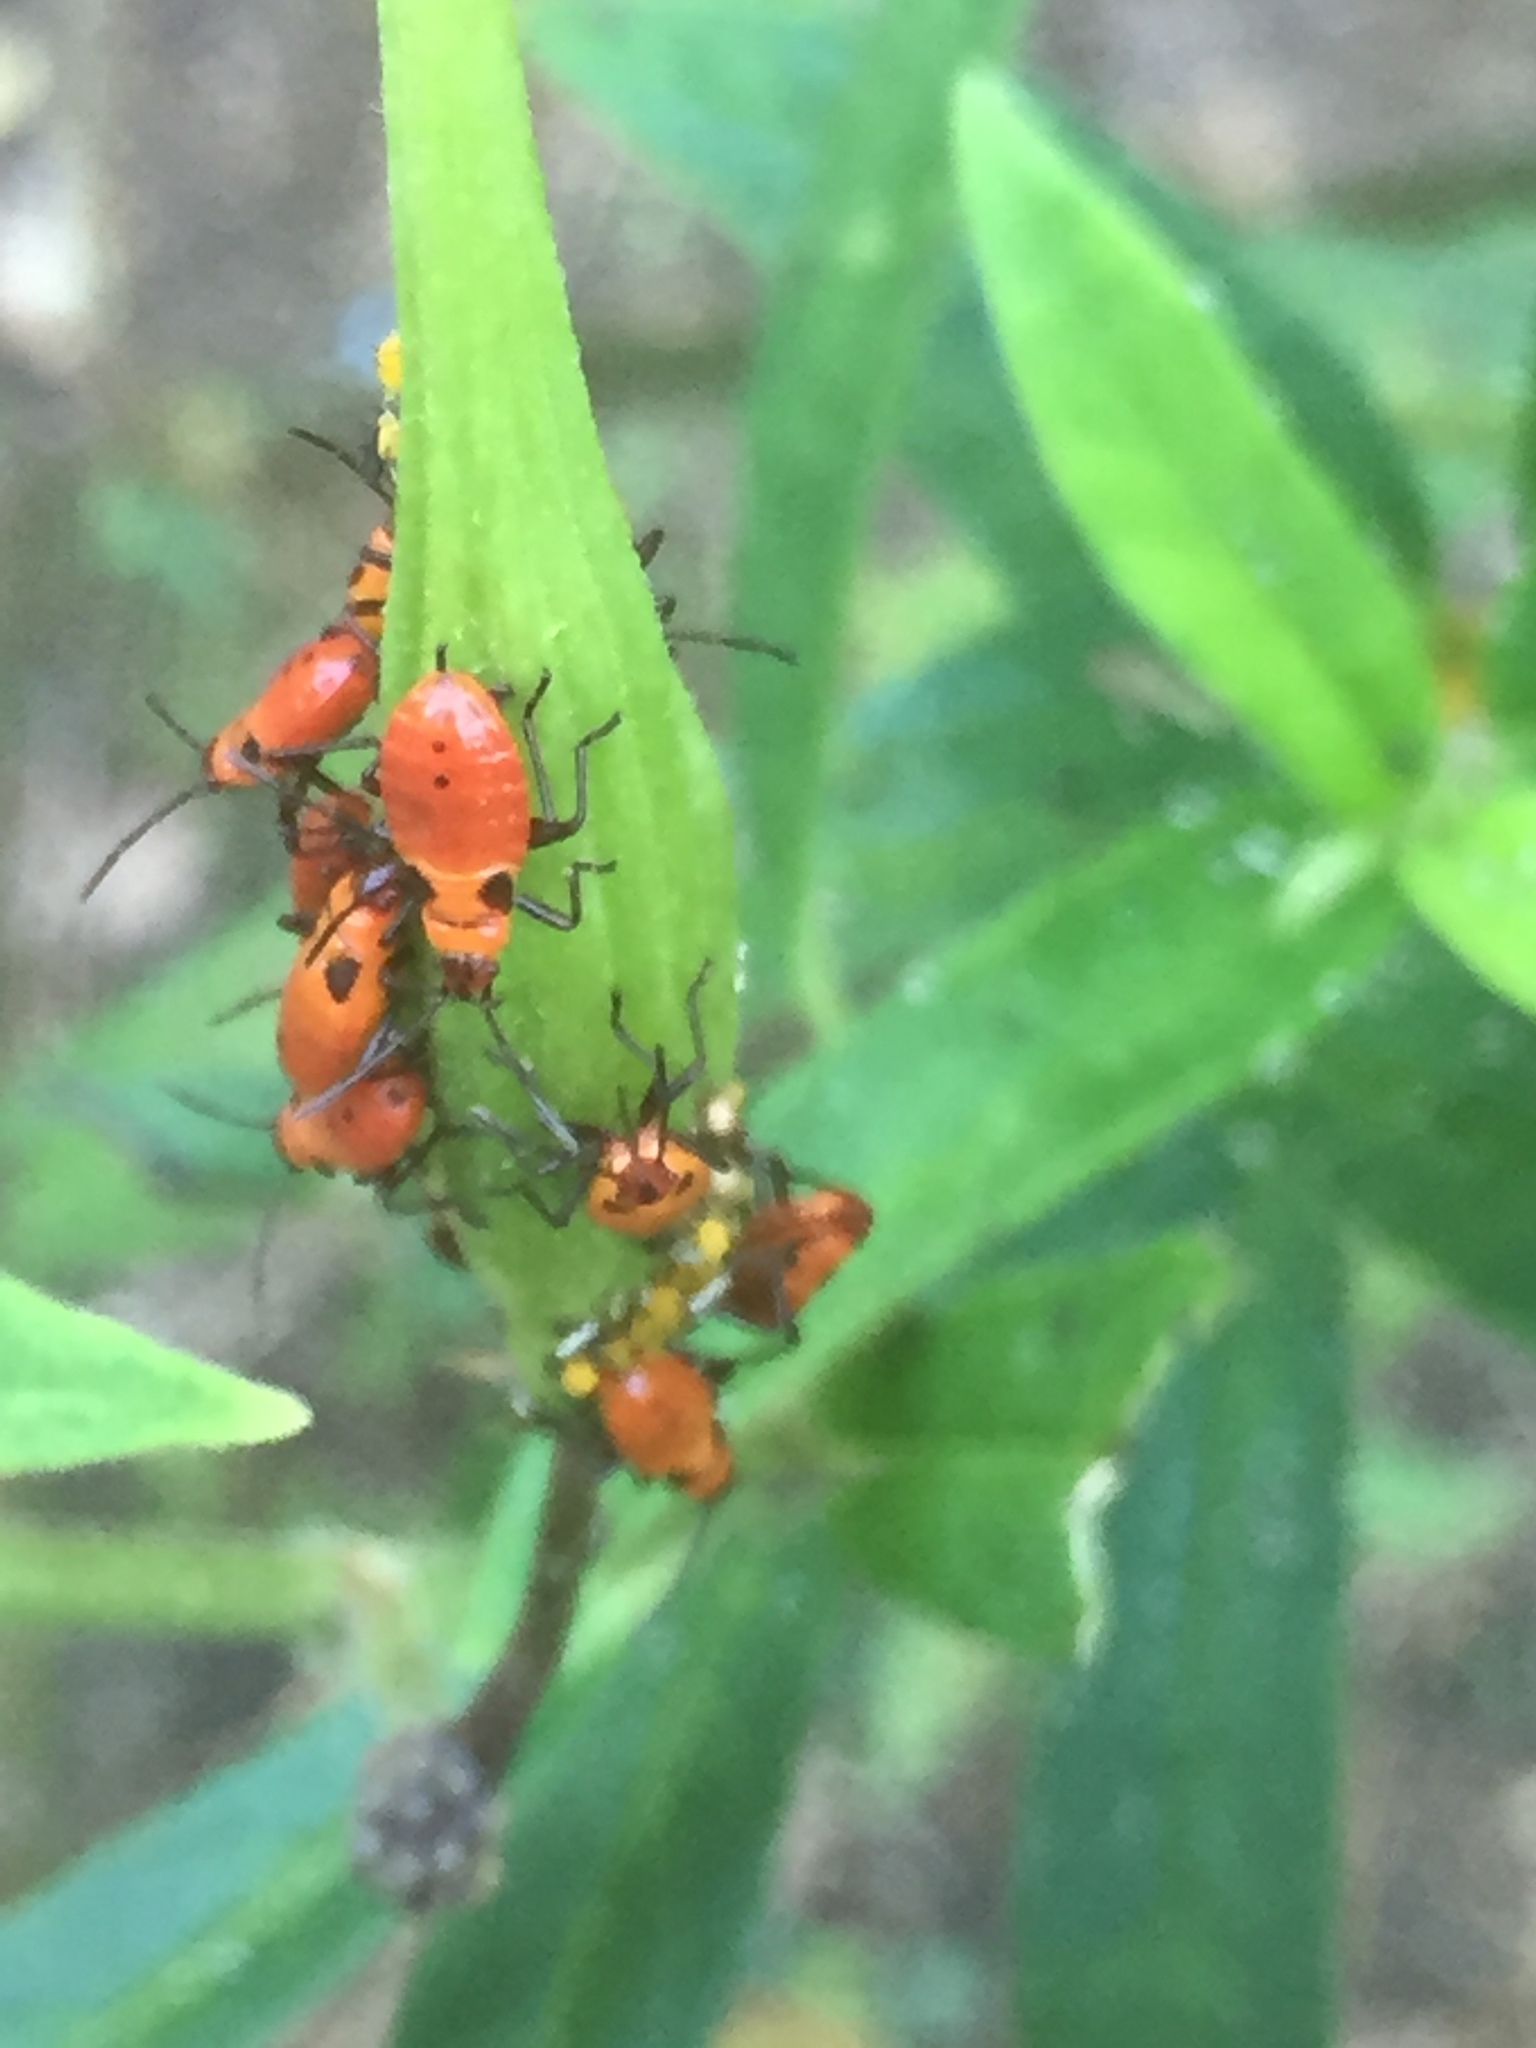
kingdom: Animalia
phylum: Arthropoda
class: Insecta
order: Hemiptera
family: Lygaeidae
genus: Oncopeltus
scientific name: Oncopeltus fasciatus
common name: Large milkweed bug
